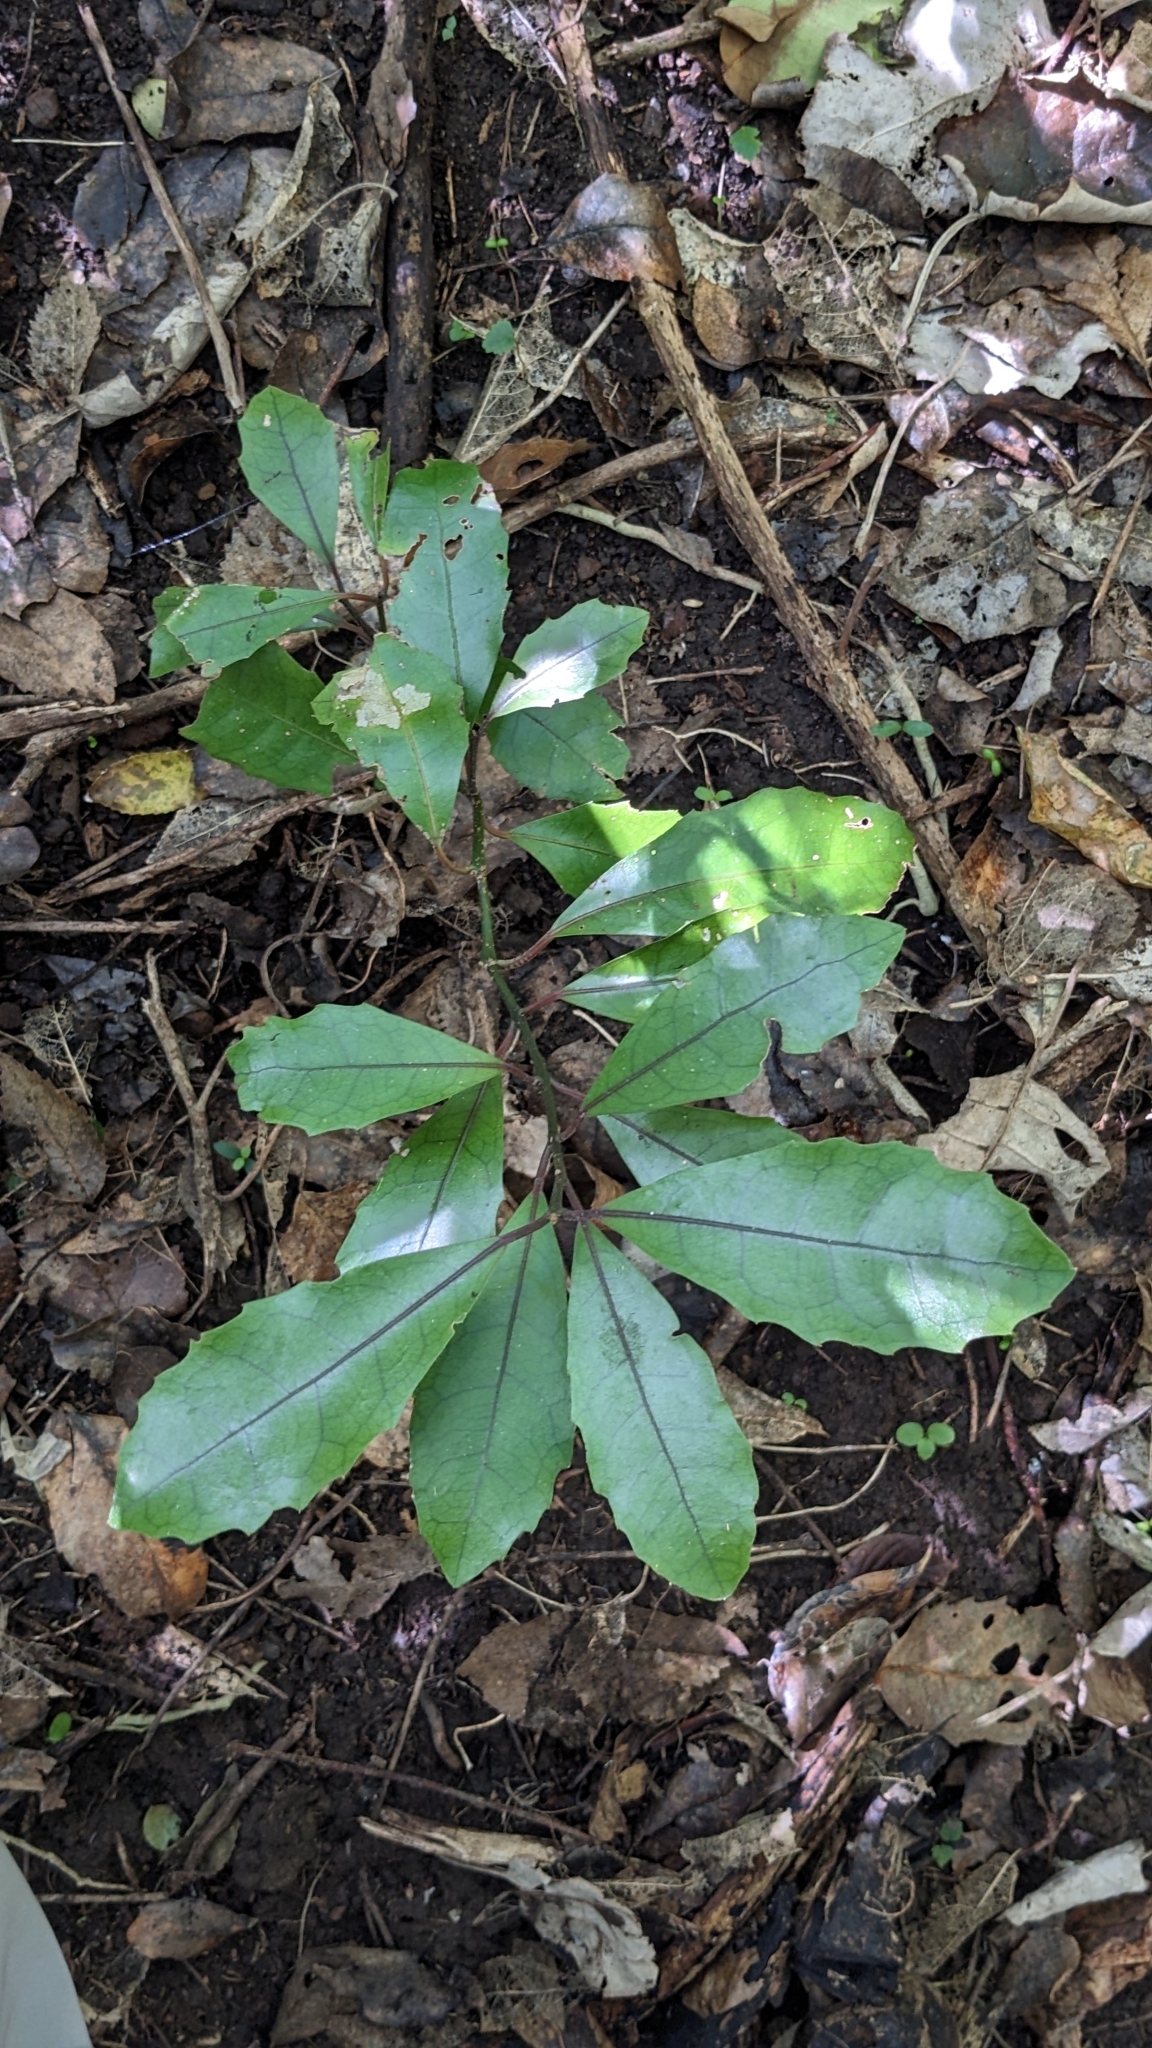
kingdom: Plantae
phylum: Tracheophyta
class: Magnoliopsida
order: Laurales
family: Monimiaceae
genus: Hedycarya
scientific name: Hedycarya arborea
